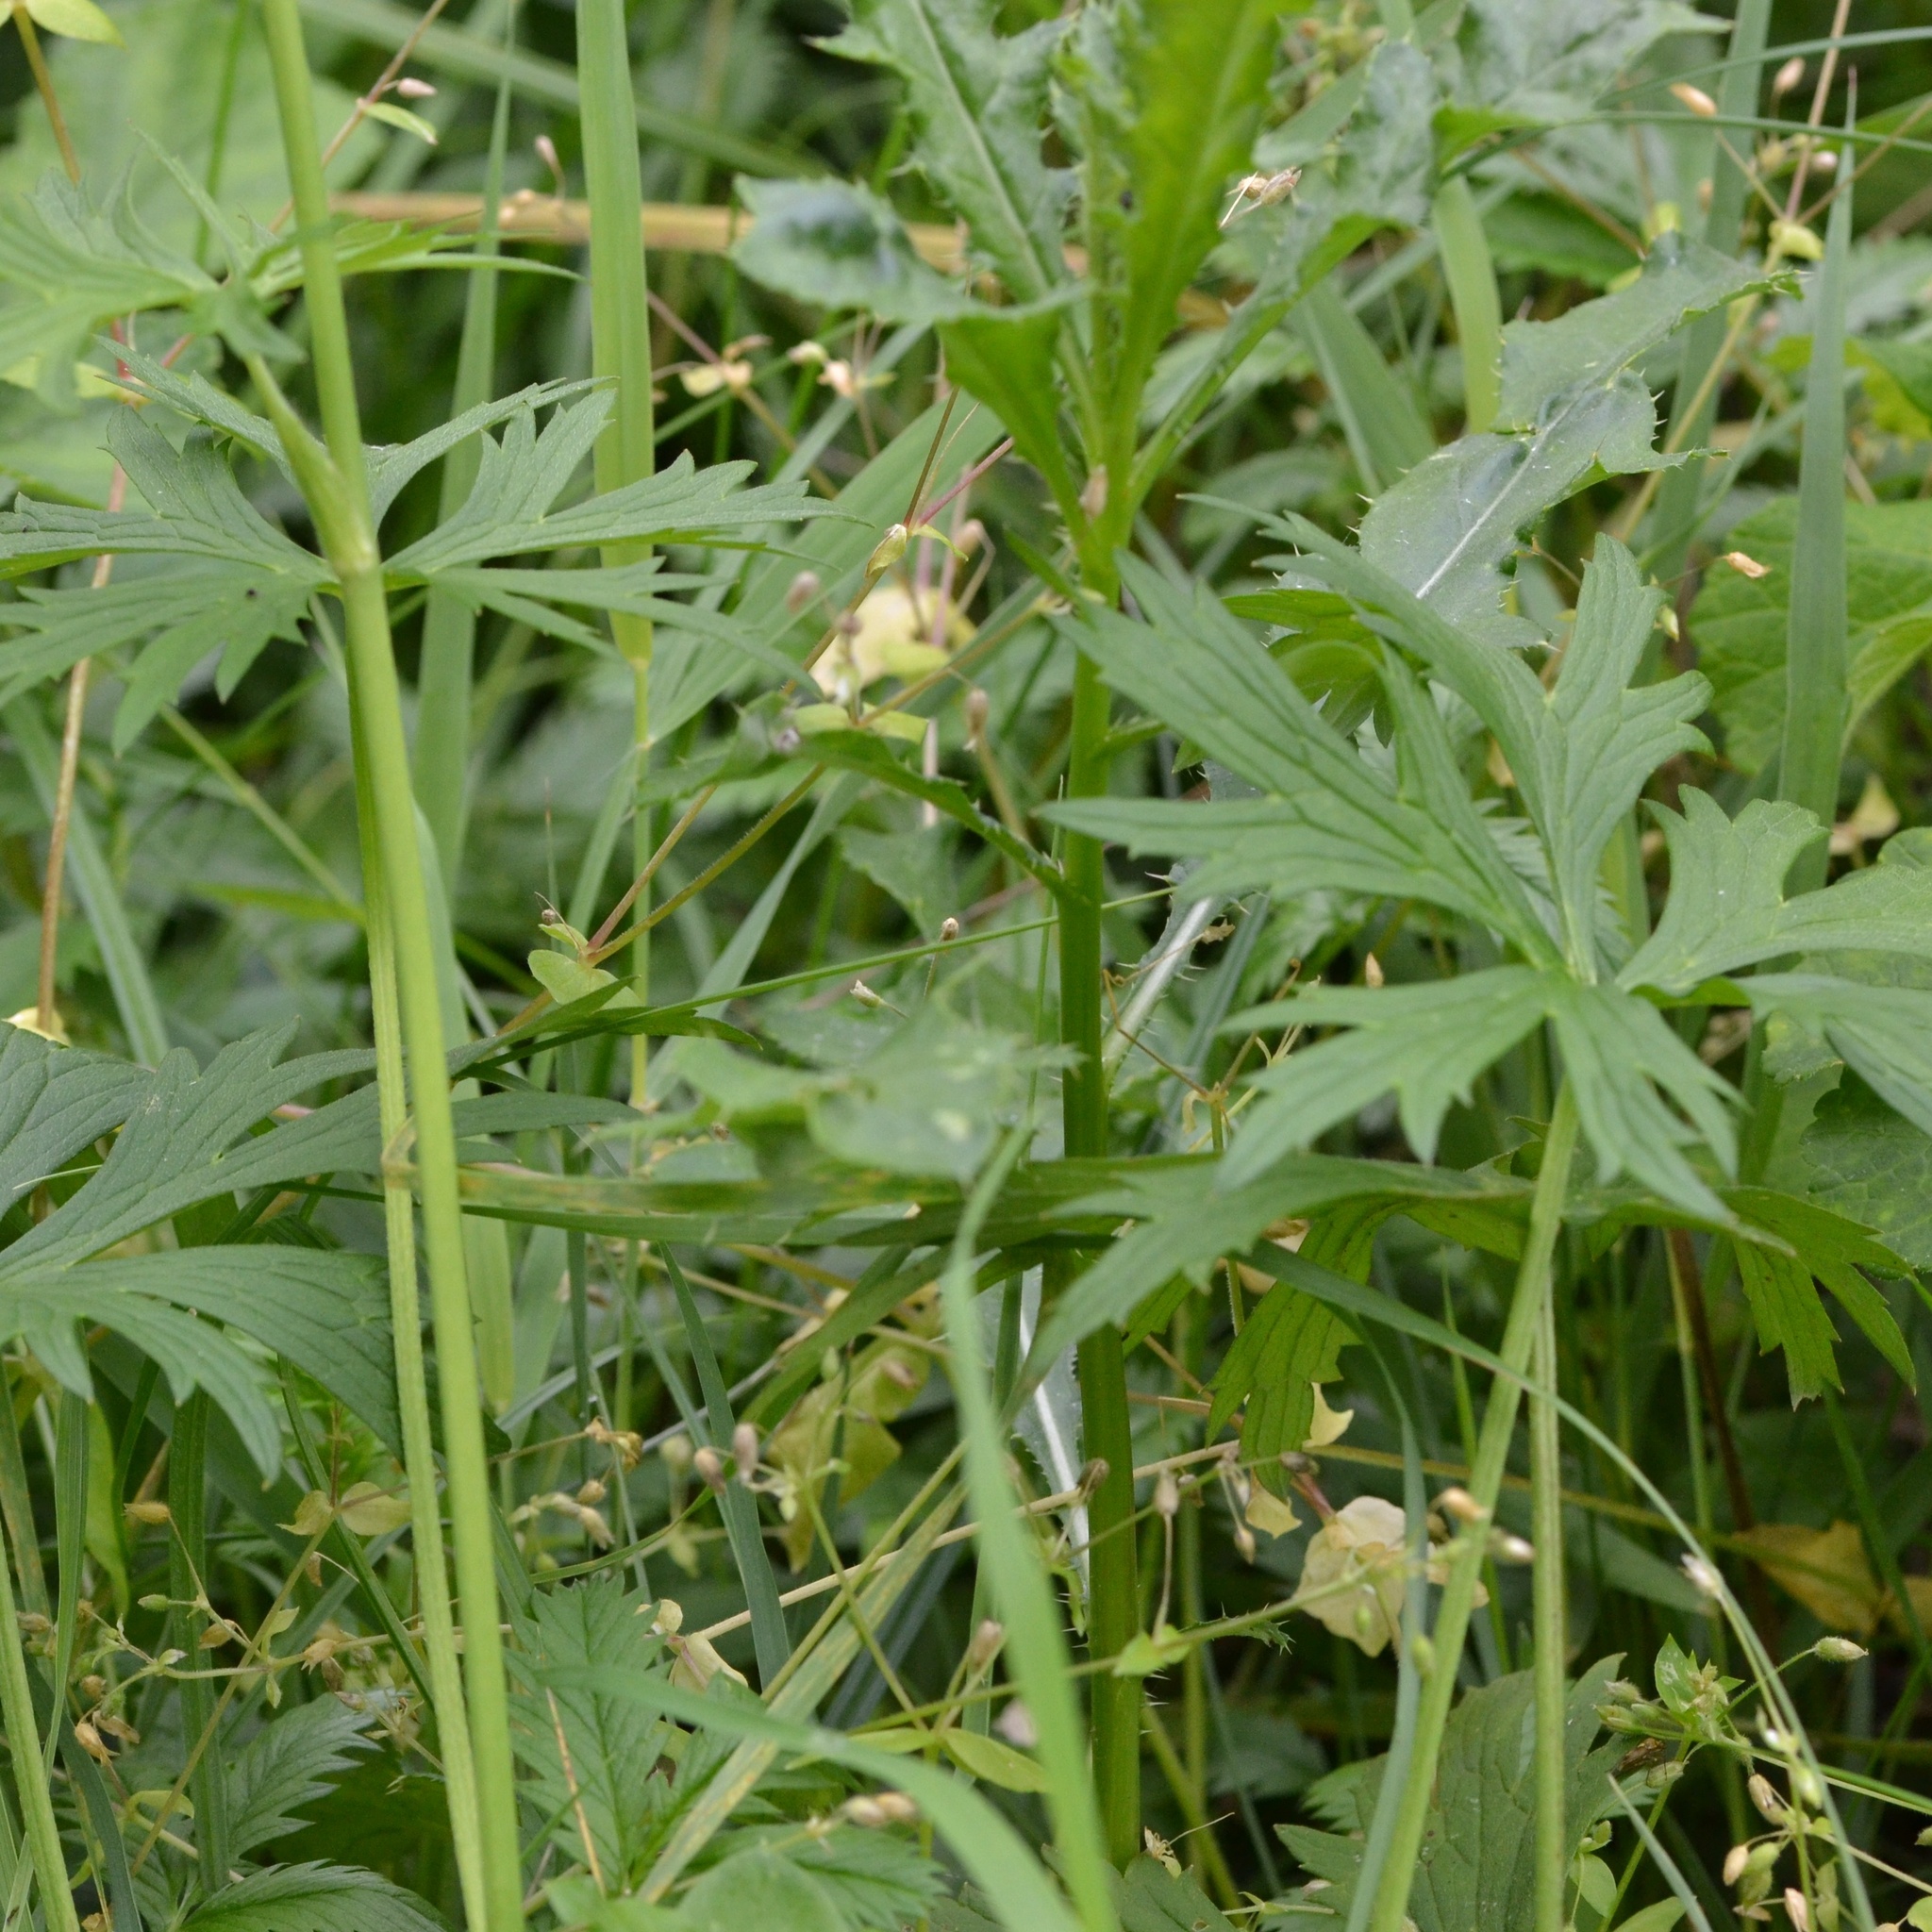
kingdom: Plantae
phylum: Tracheophyta
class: Magnoliopsida
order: Ranunculales
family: Ranunculaceae
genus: Ranunculus
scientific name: Ranunculus acris
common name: Meadow buttercup
